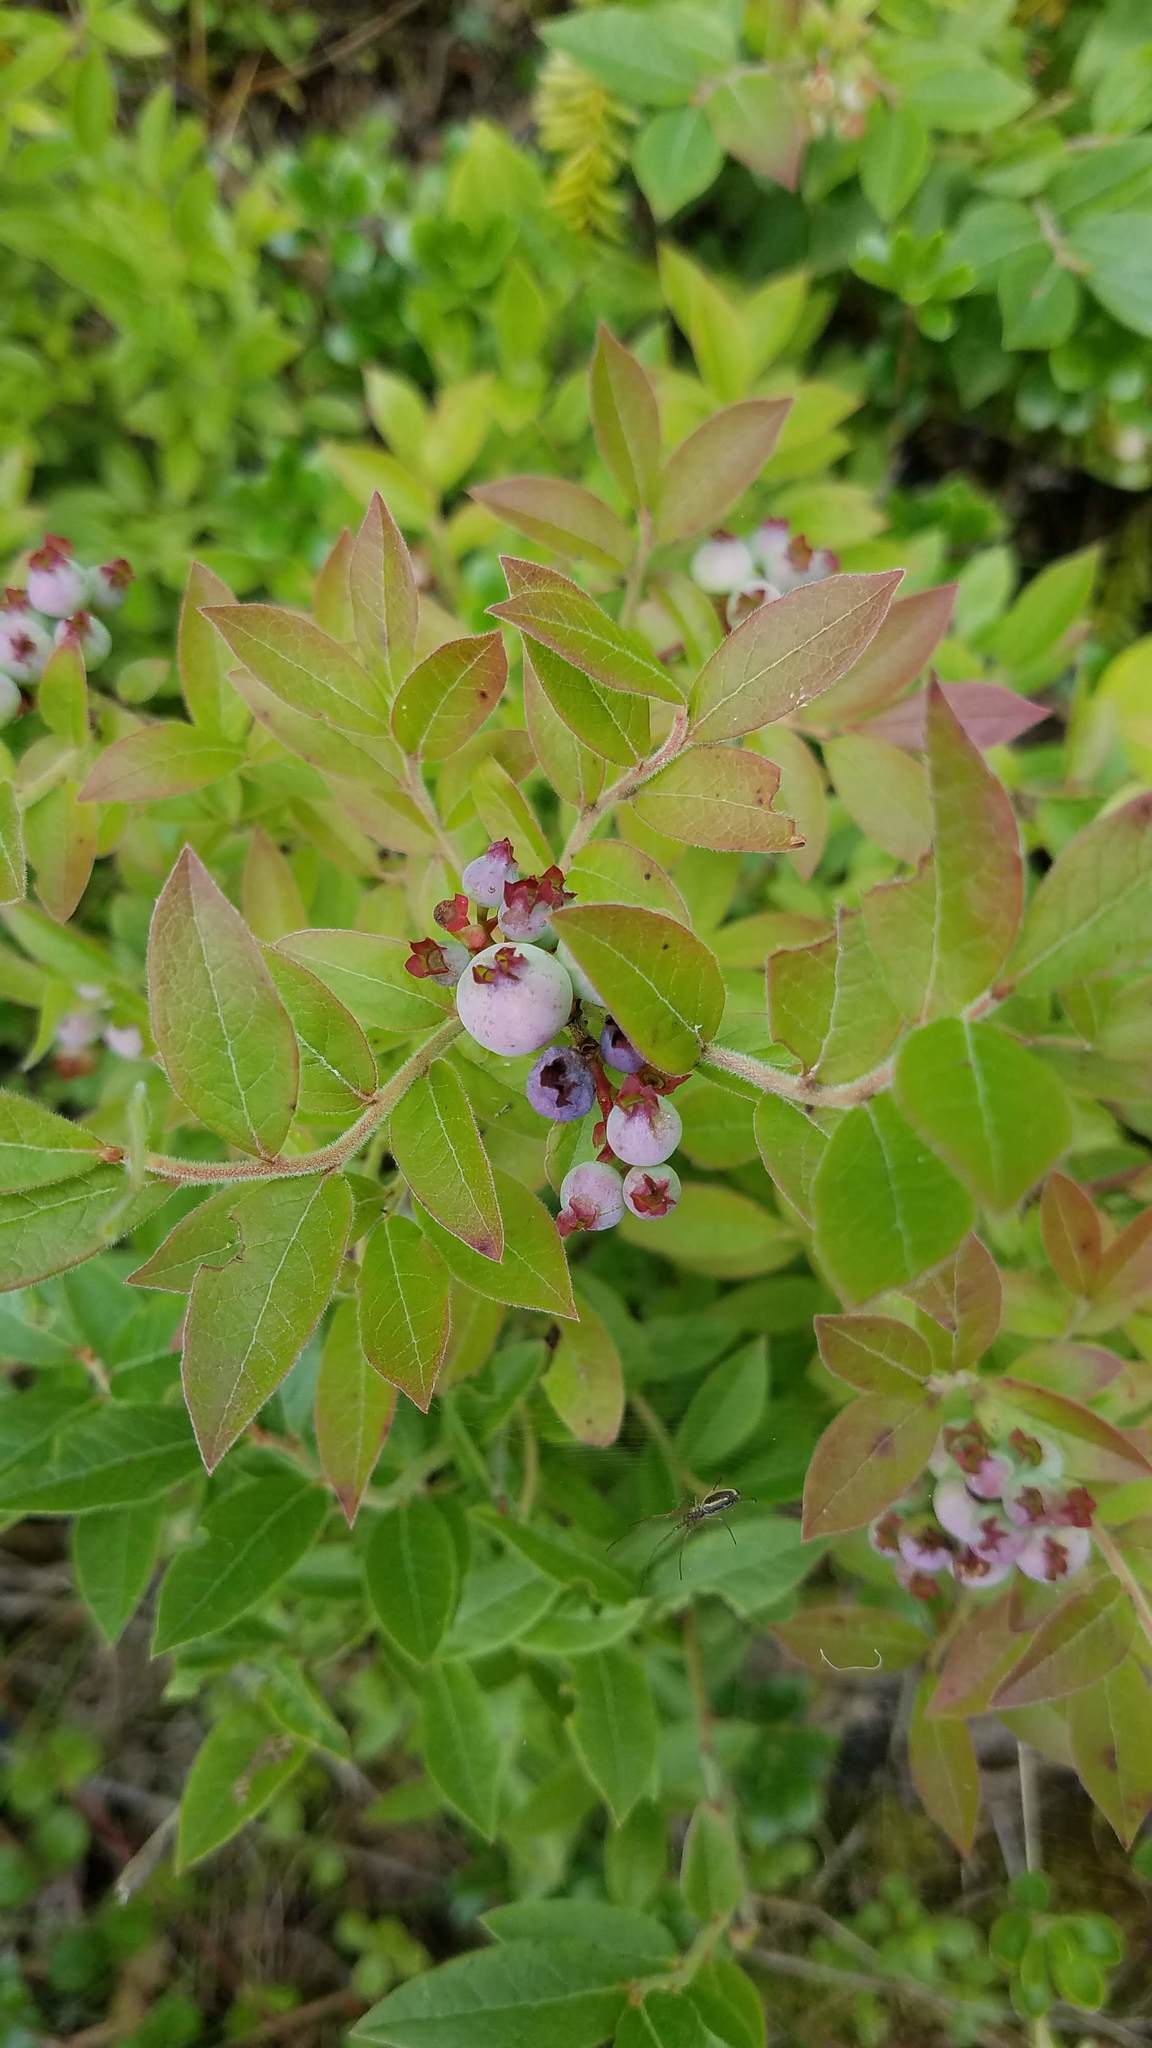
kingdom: Plantae
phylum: Tracheophyta
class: Magnoliopsida
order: Ericales
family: Ericaceae
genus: Vaccinium
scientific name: Vaccinium myrtilloides
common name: Canada blueberry
